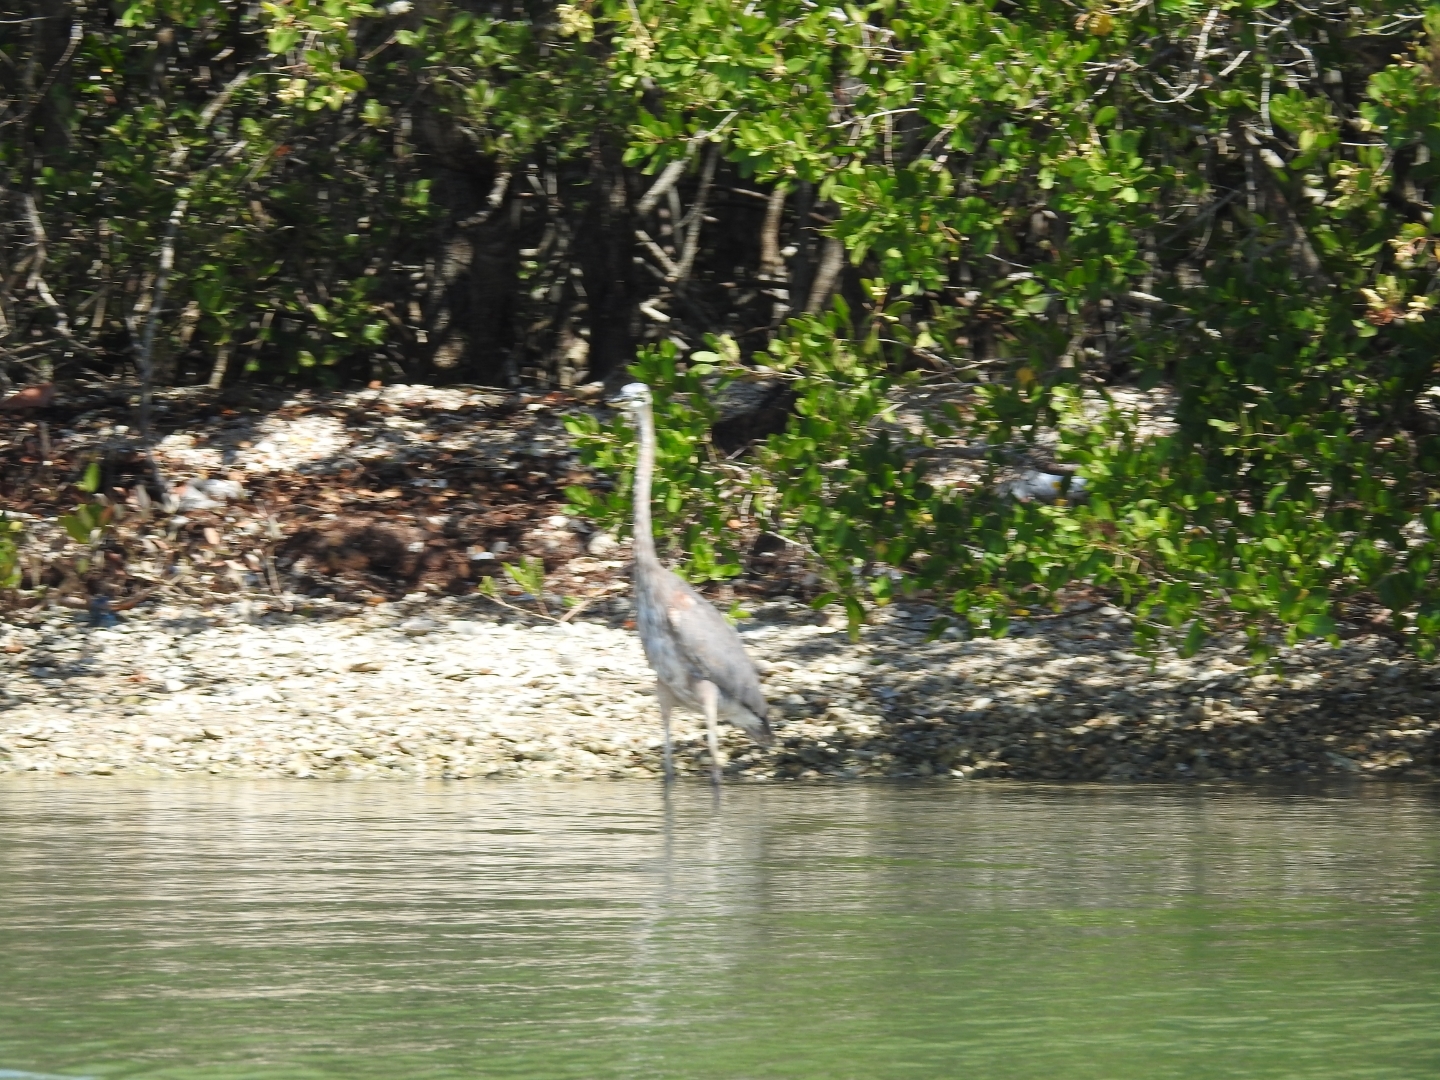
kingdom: Animalia
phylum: Chordata
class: Aves
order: Pelecaniformes
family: Ardeidae
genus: Ardea
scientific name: Ardea herodias
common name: Great blue heron
